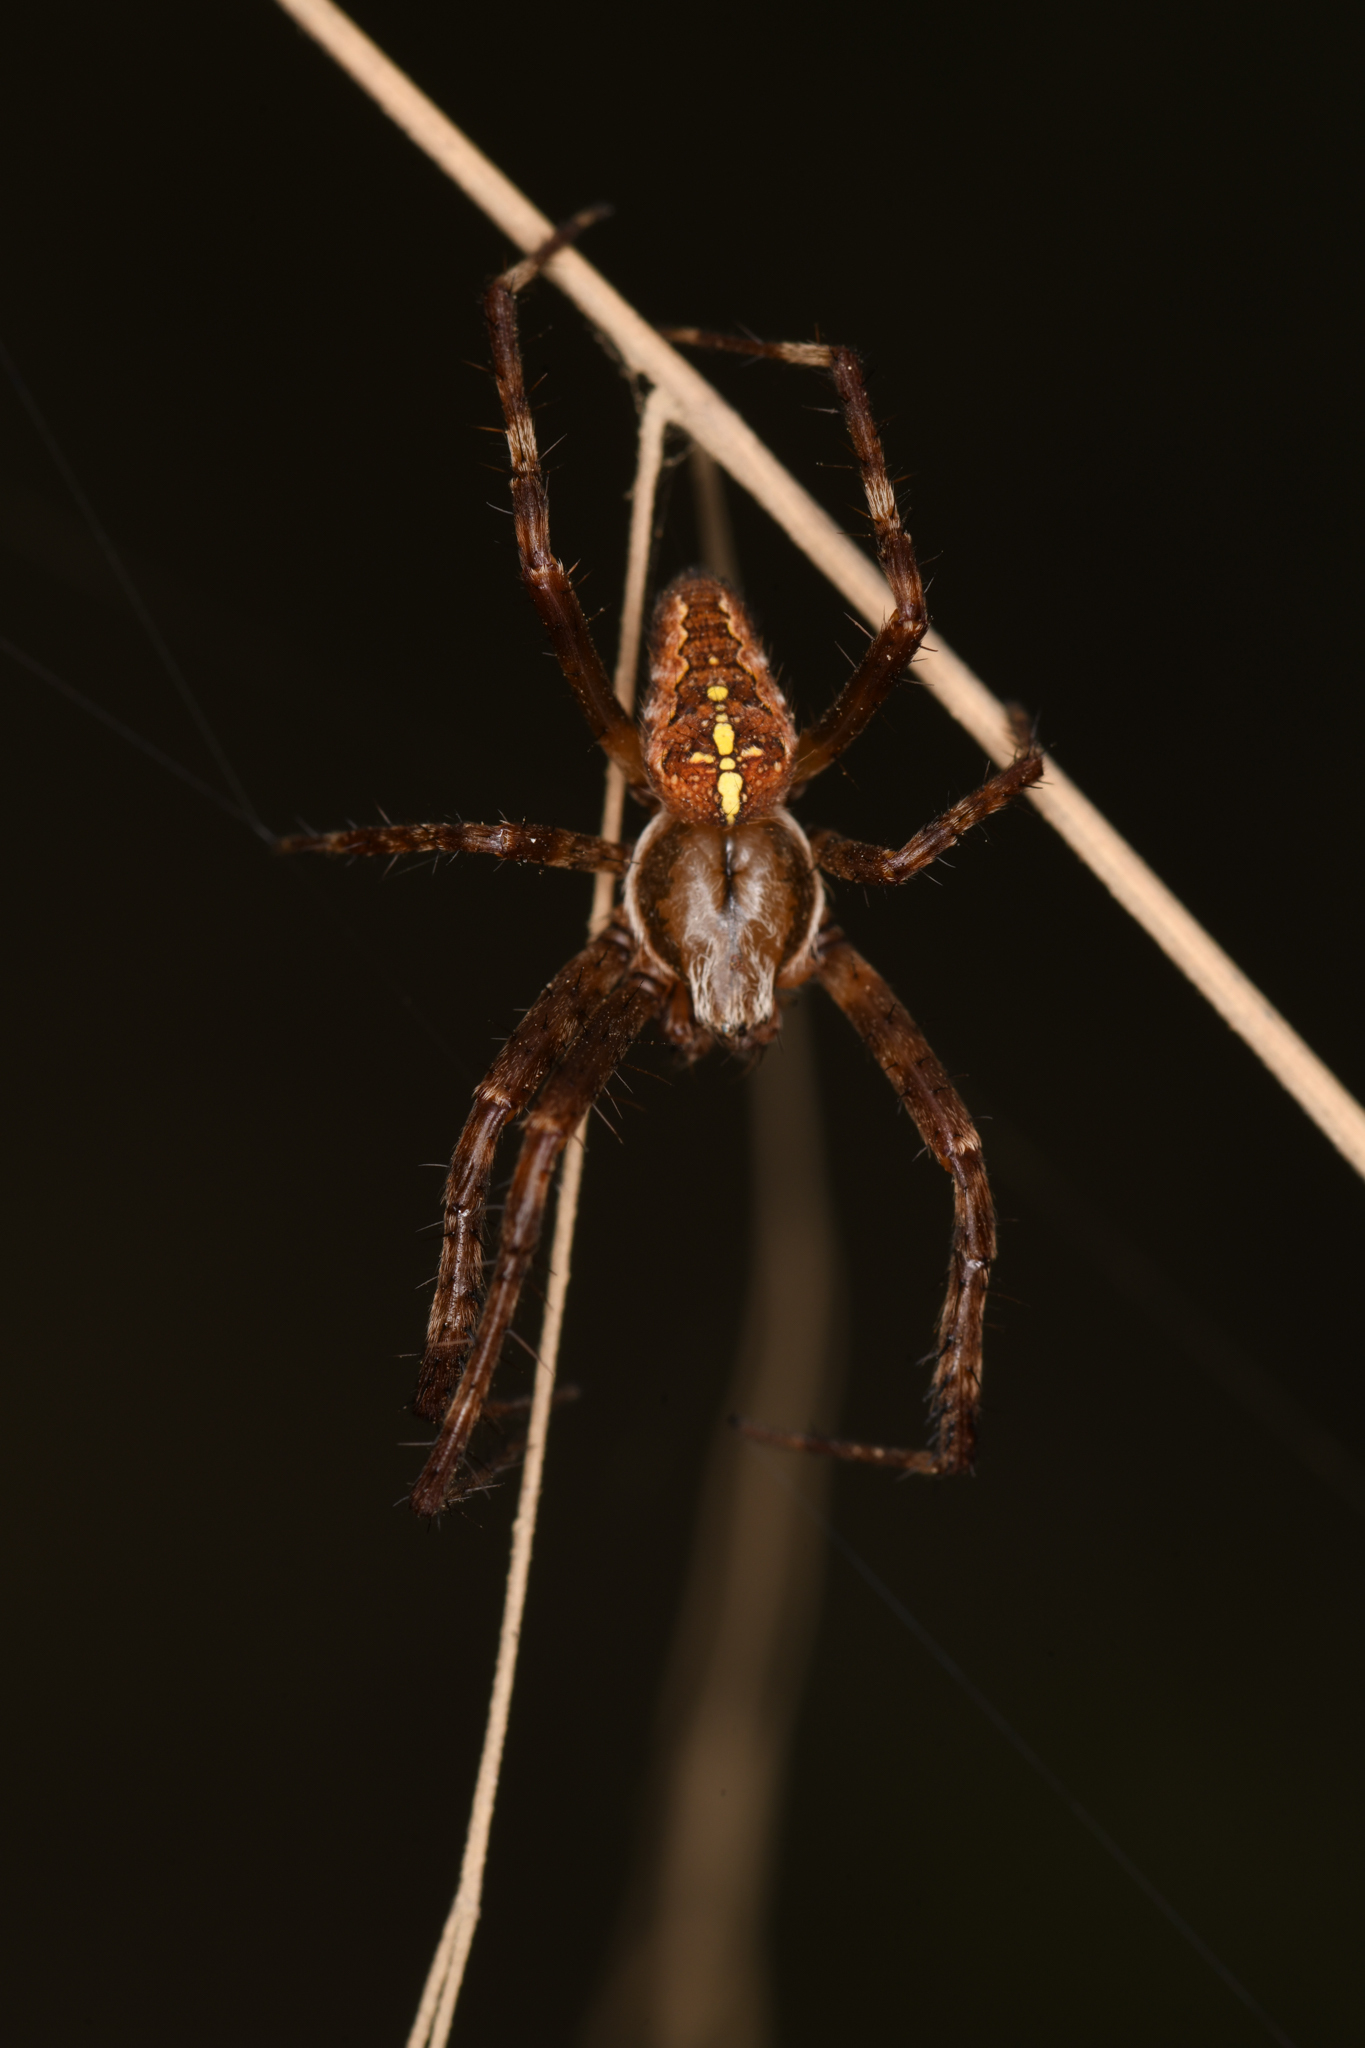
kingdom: Animalia
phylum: Arthropoda
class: Arachnida
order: Araneae
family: Araneidae
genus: Araneus
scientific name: Araneus diadematus
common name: Cross orbweaver
